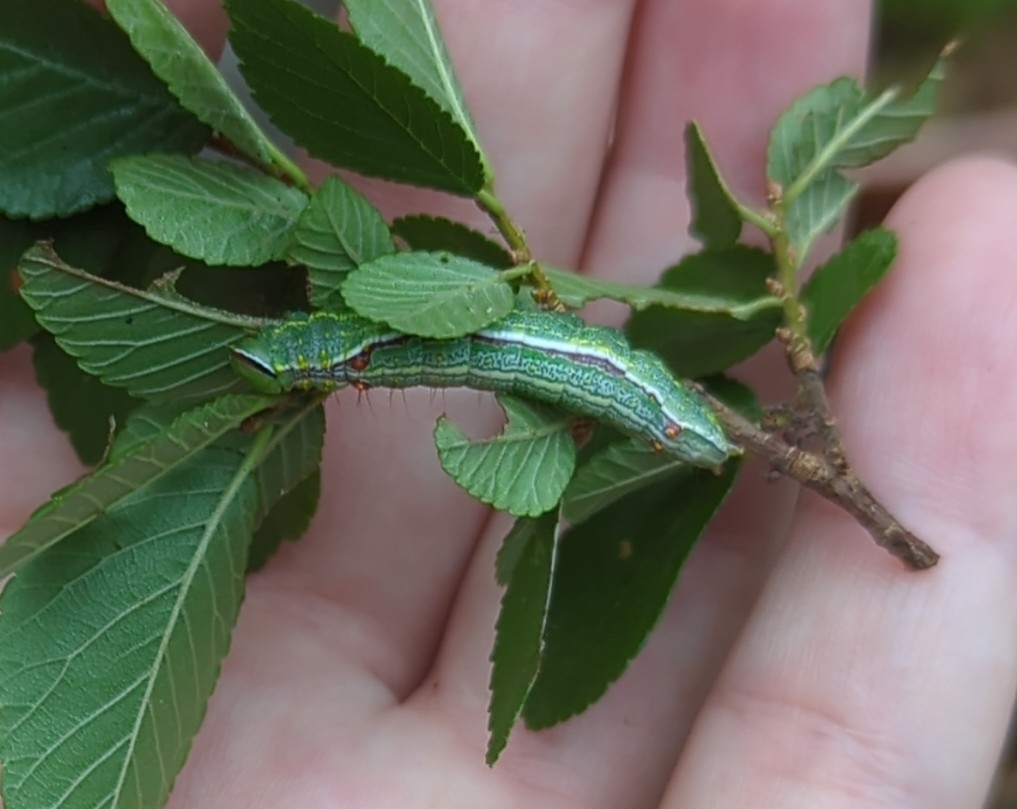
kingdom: Animalia
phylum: Arthropoda
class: Insecta
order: Lepidoptera
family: Notodontidae
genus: Lochmaeus
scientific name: Lochmaeus bilineata
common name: Double-lined prominent
